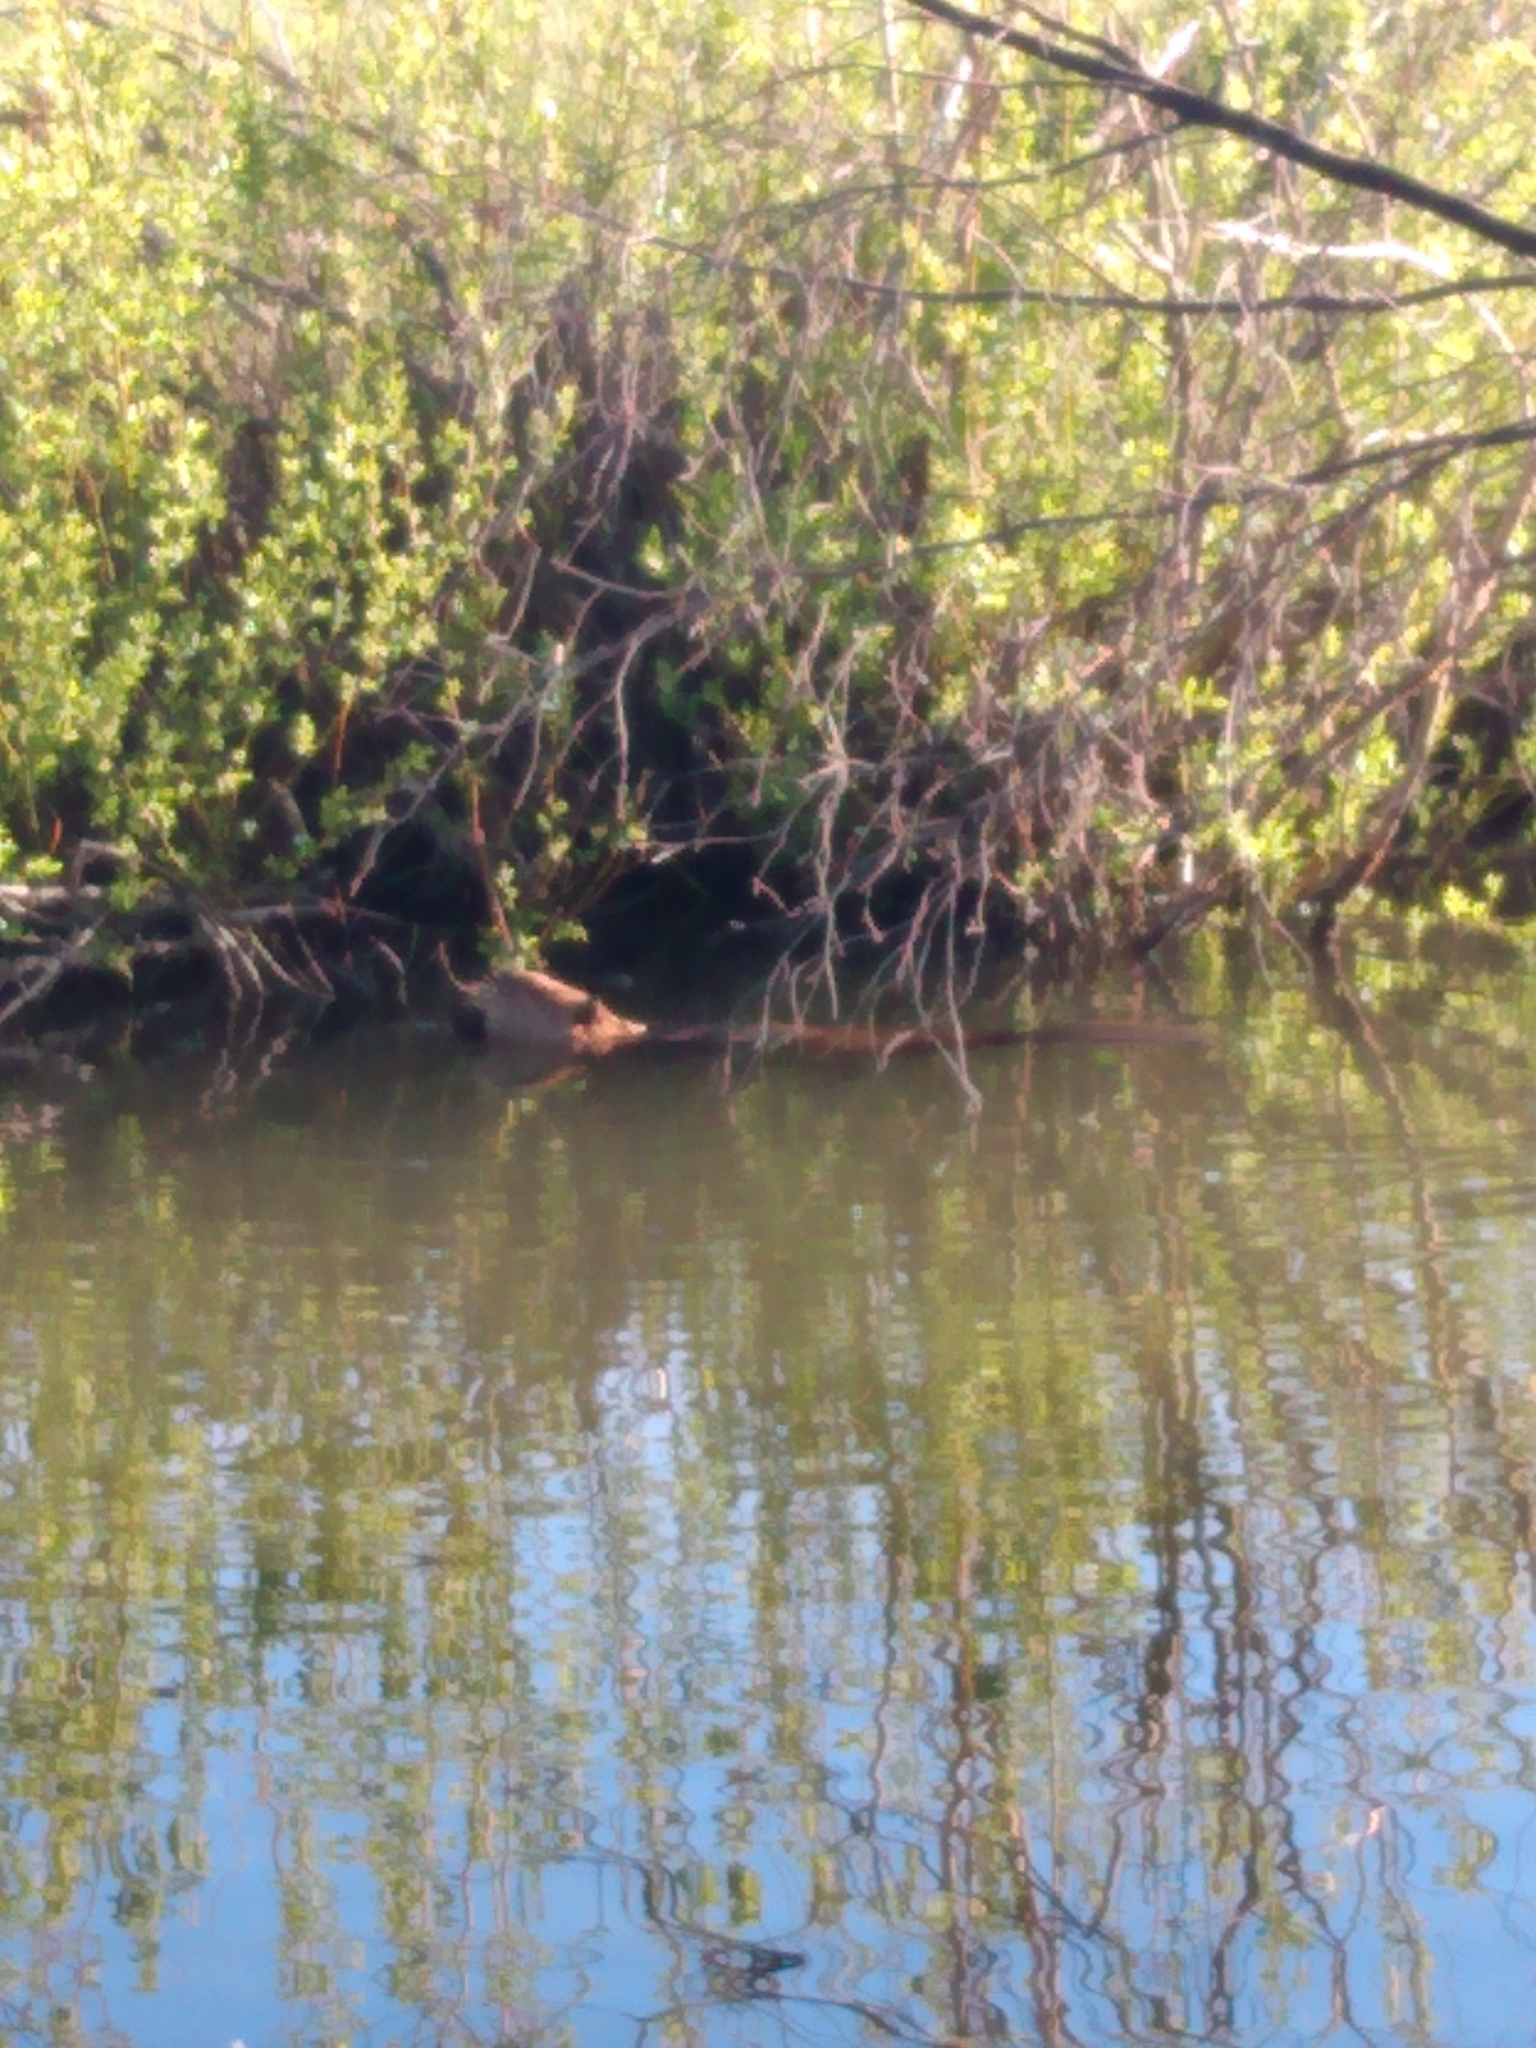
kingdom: Animalia
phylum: Chordata
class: Mammalia
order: Rodentia
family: Castoridae
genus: Castor
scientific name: Castor canadensis
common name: American beaver
